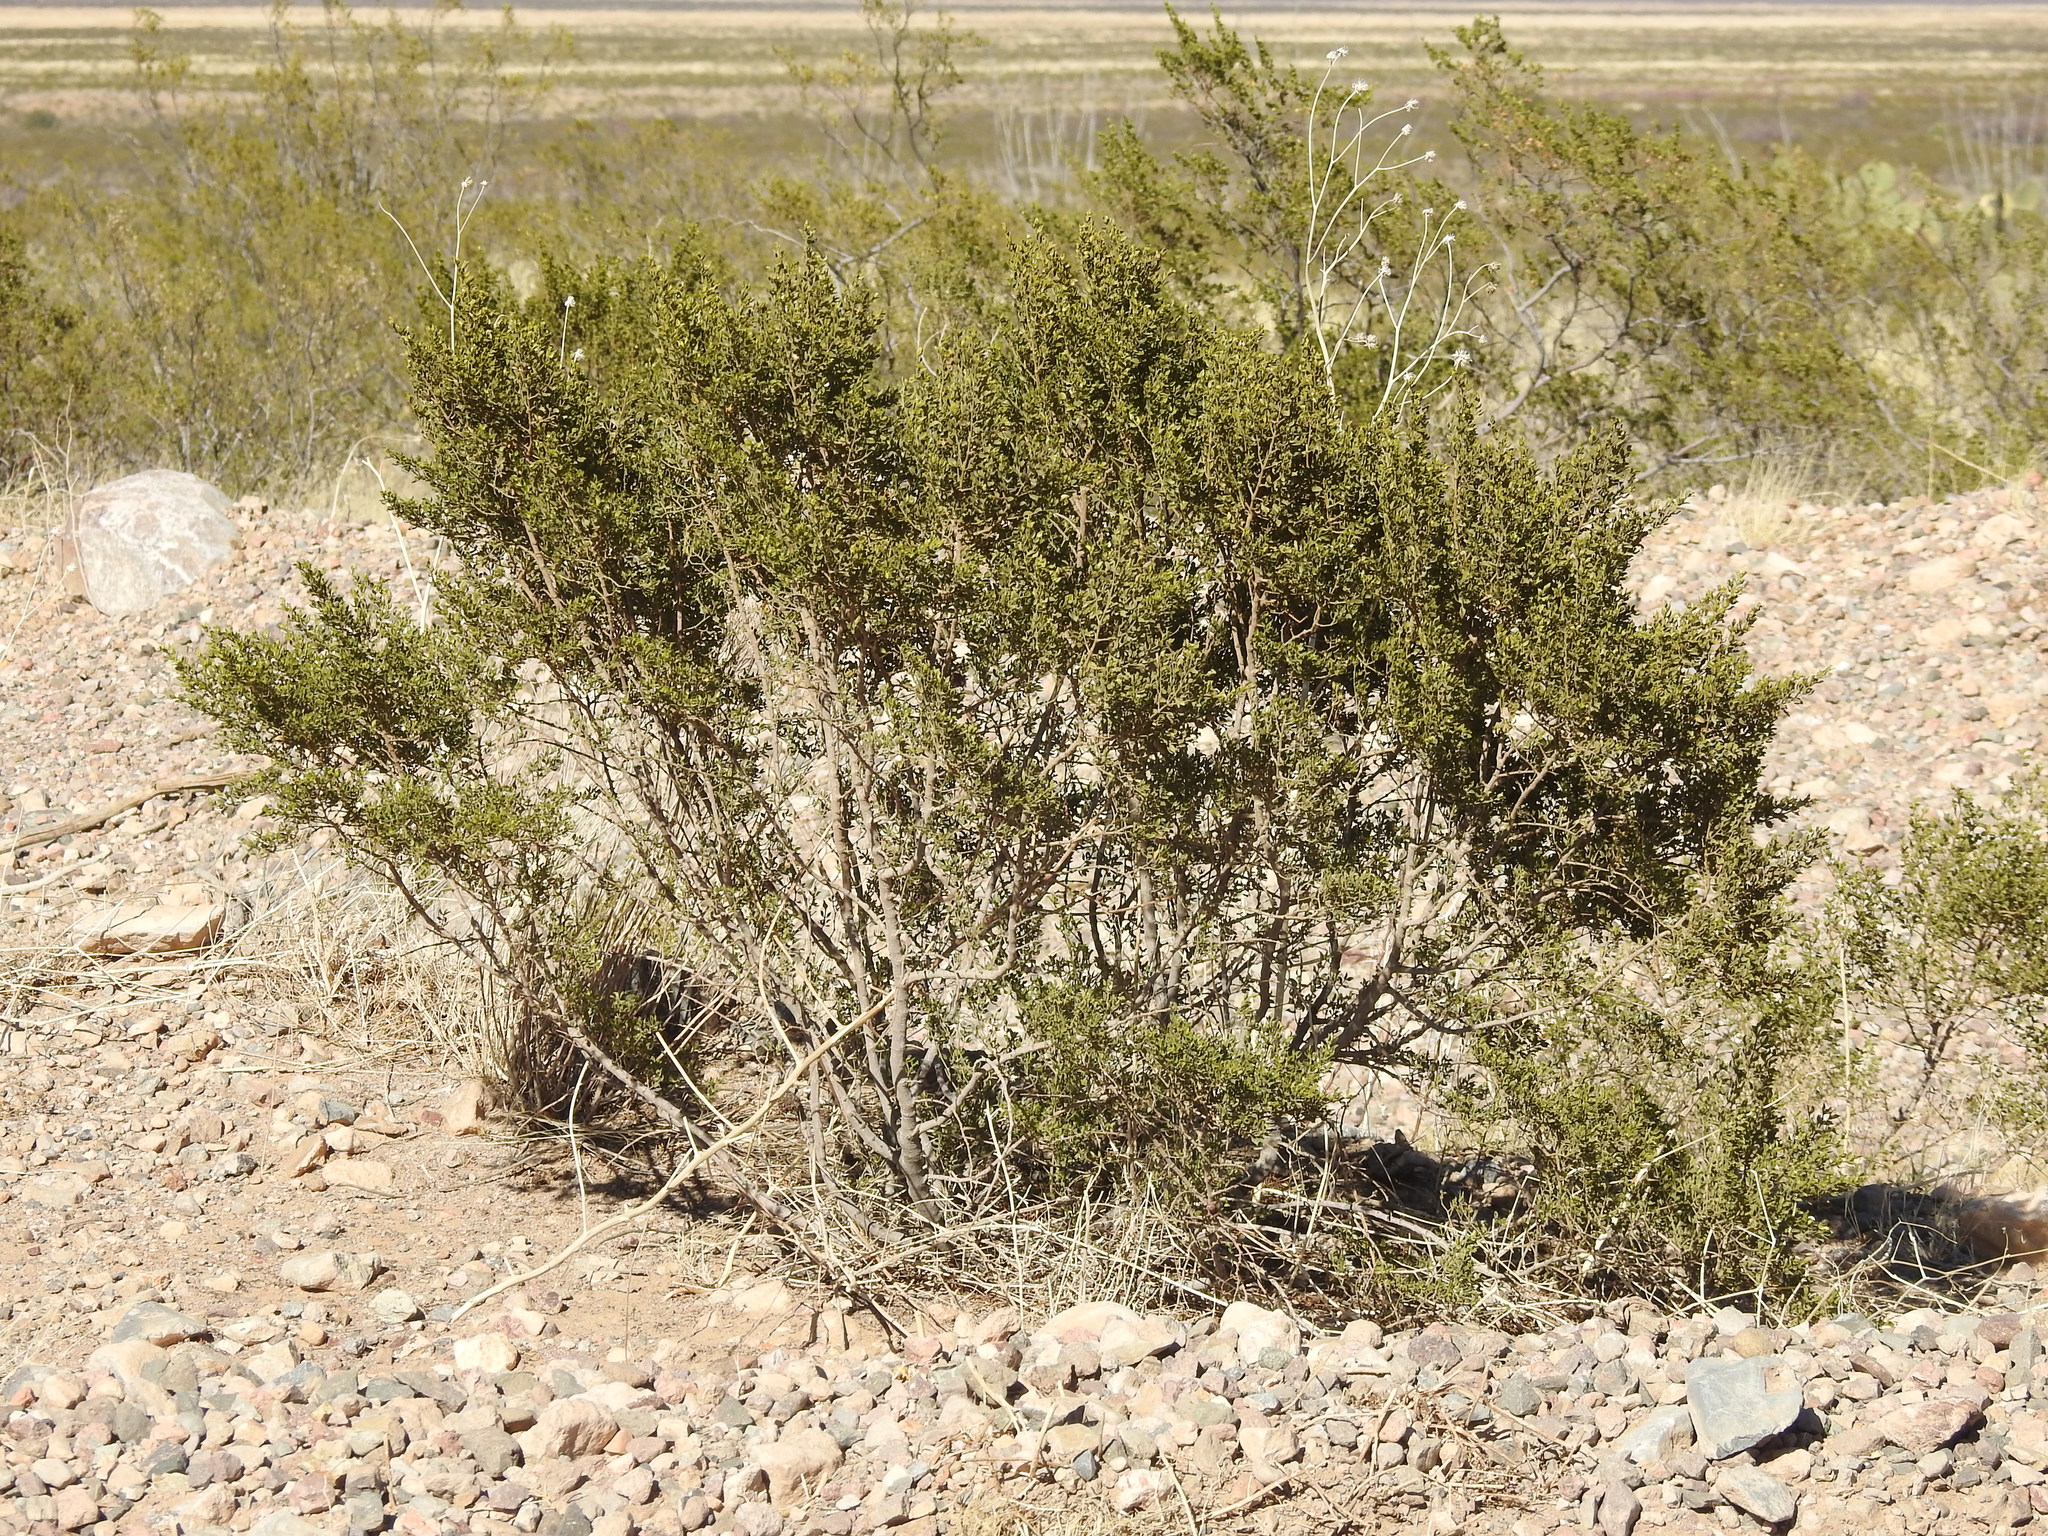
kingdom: Plantae
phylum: Tracheophyta
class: Magnoliopsida
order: Zygophyllales
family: Zygophyllaceae
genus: Larrea
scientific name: Larrea tridentata
